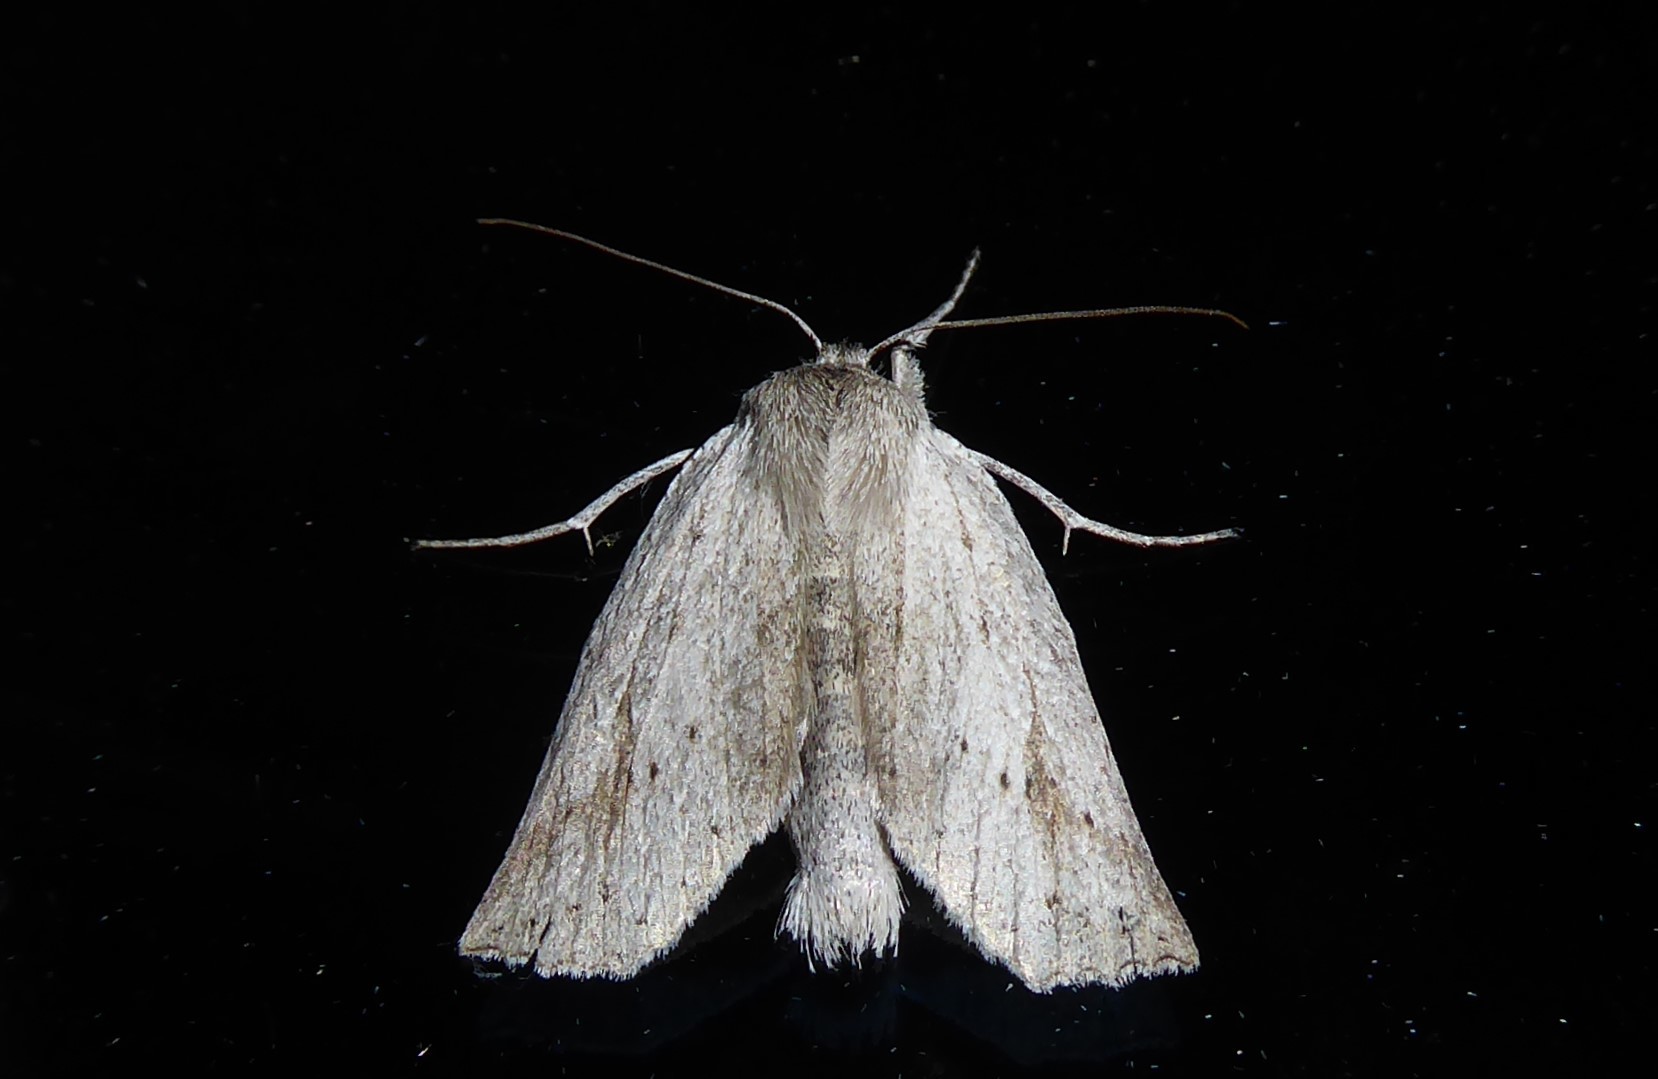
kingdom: Animalia
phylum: Arthropoda
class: Insecta
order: Lepidoptera
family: Geometridae
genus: Declana
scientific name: Declana leptomera
